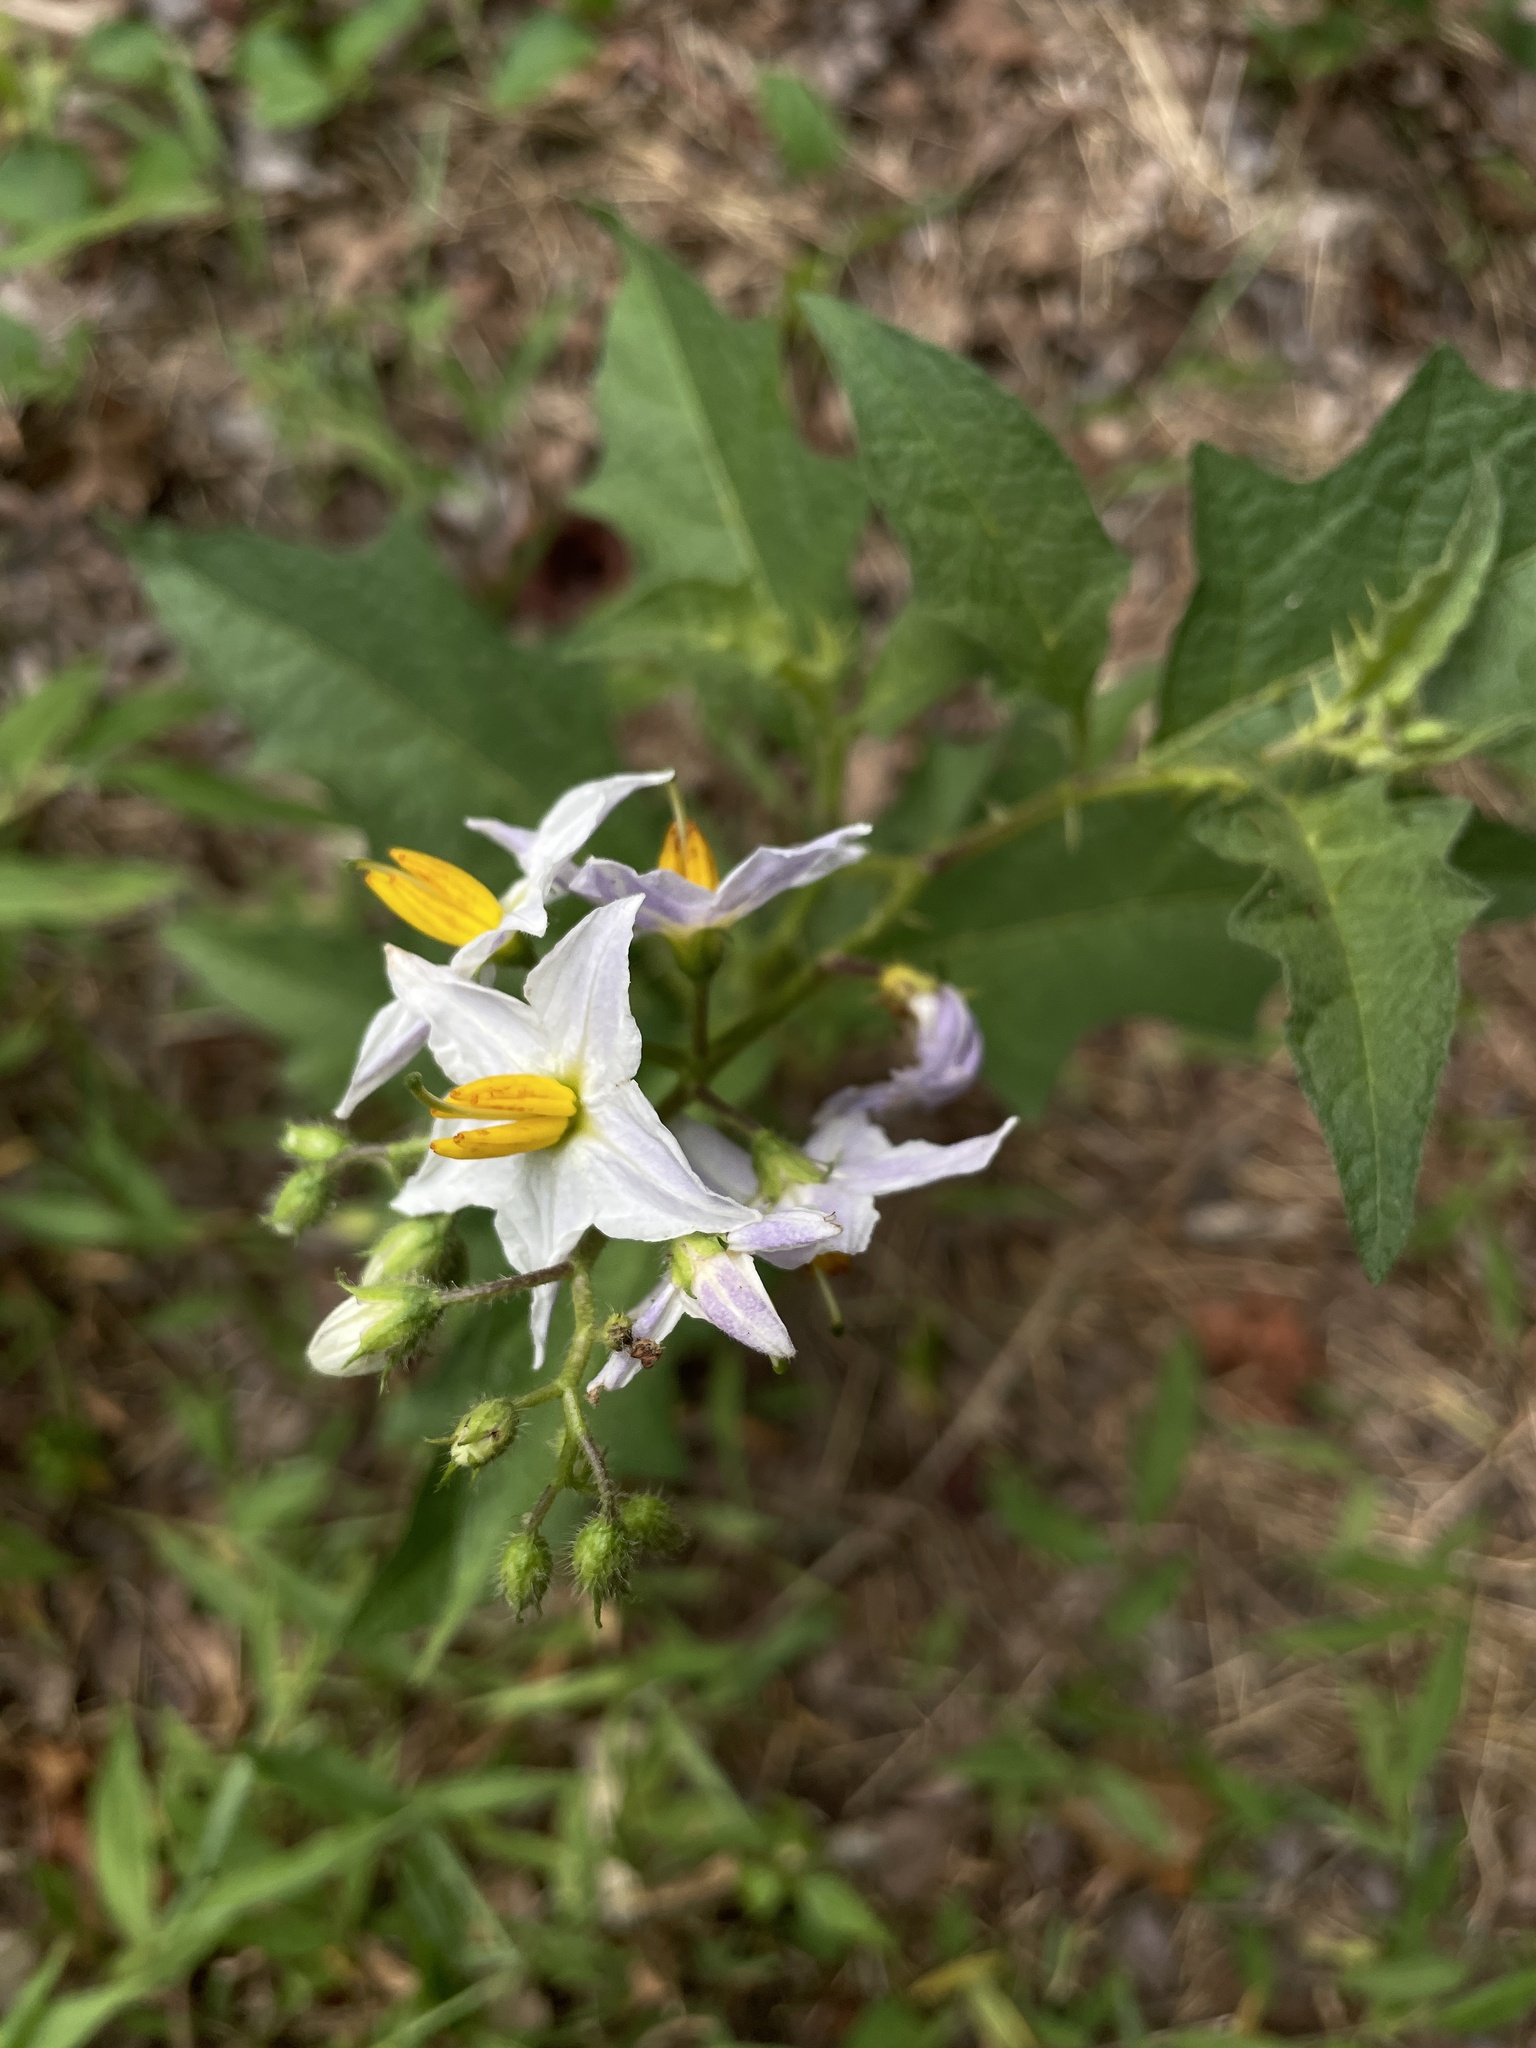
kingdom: Plantae
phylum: Tracheophyta
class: Magnoliopsida
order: Solanales
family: Solanaceae
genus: Solanum
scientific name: Solanum carolinense
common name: Horse-nettle
